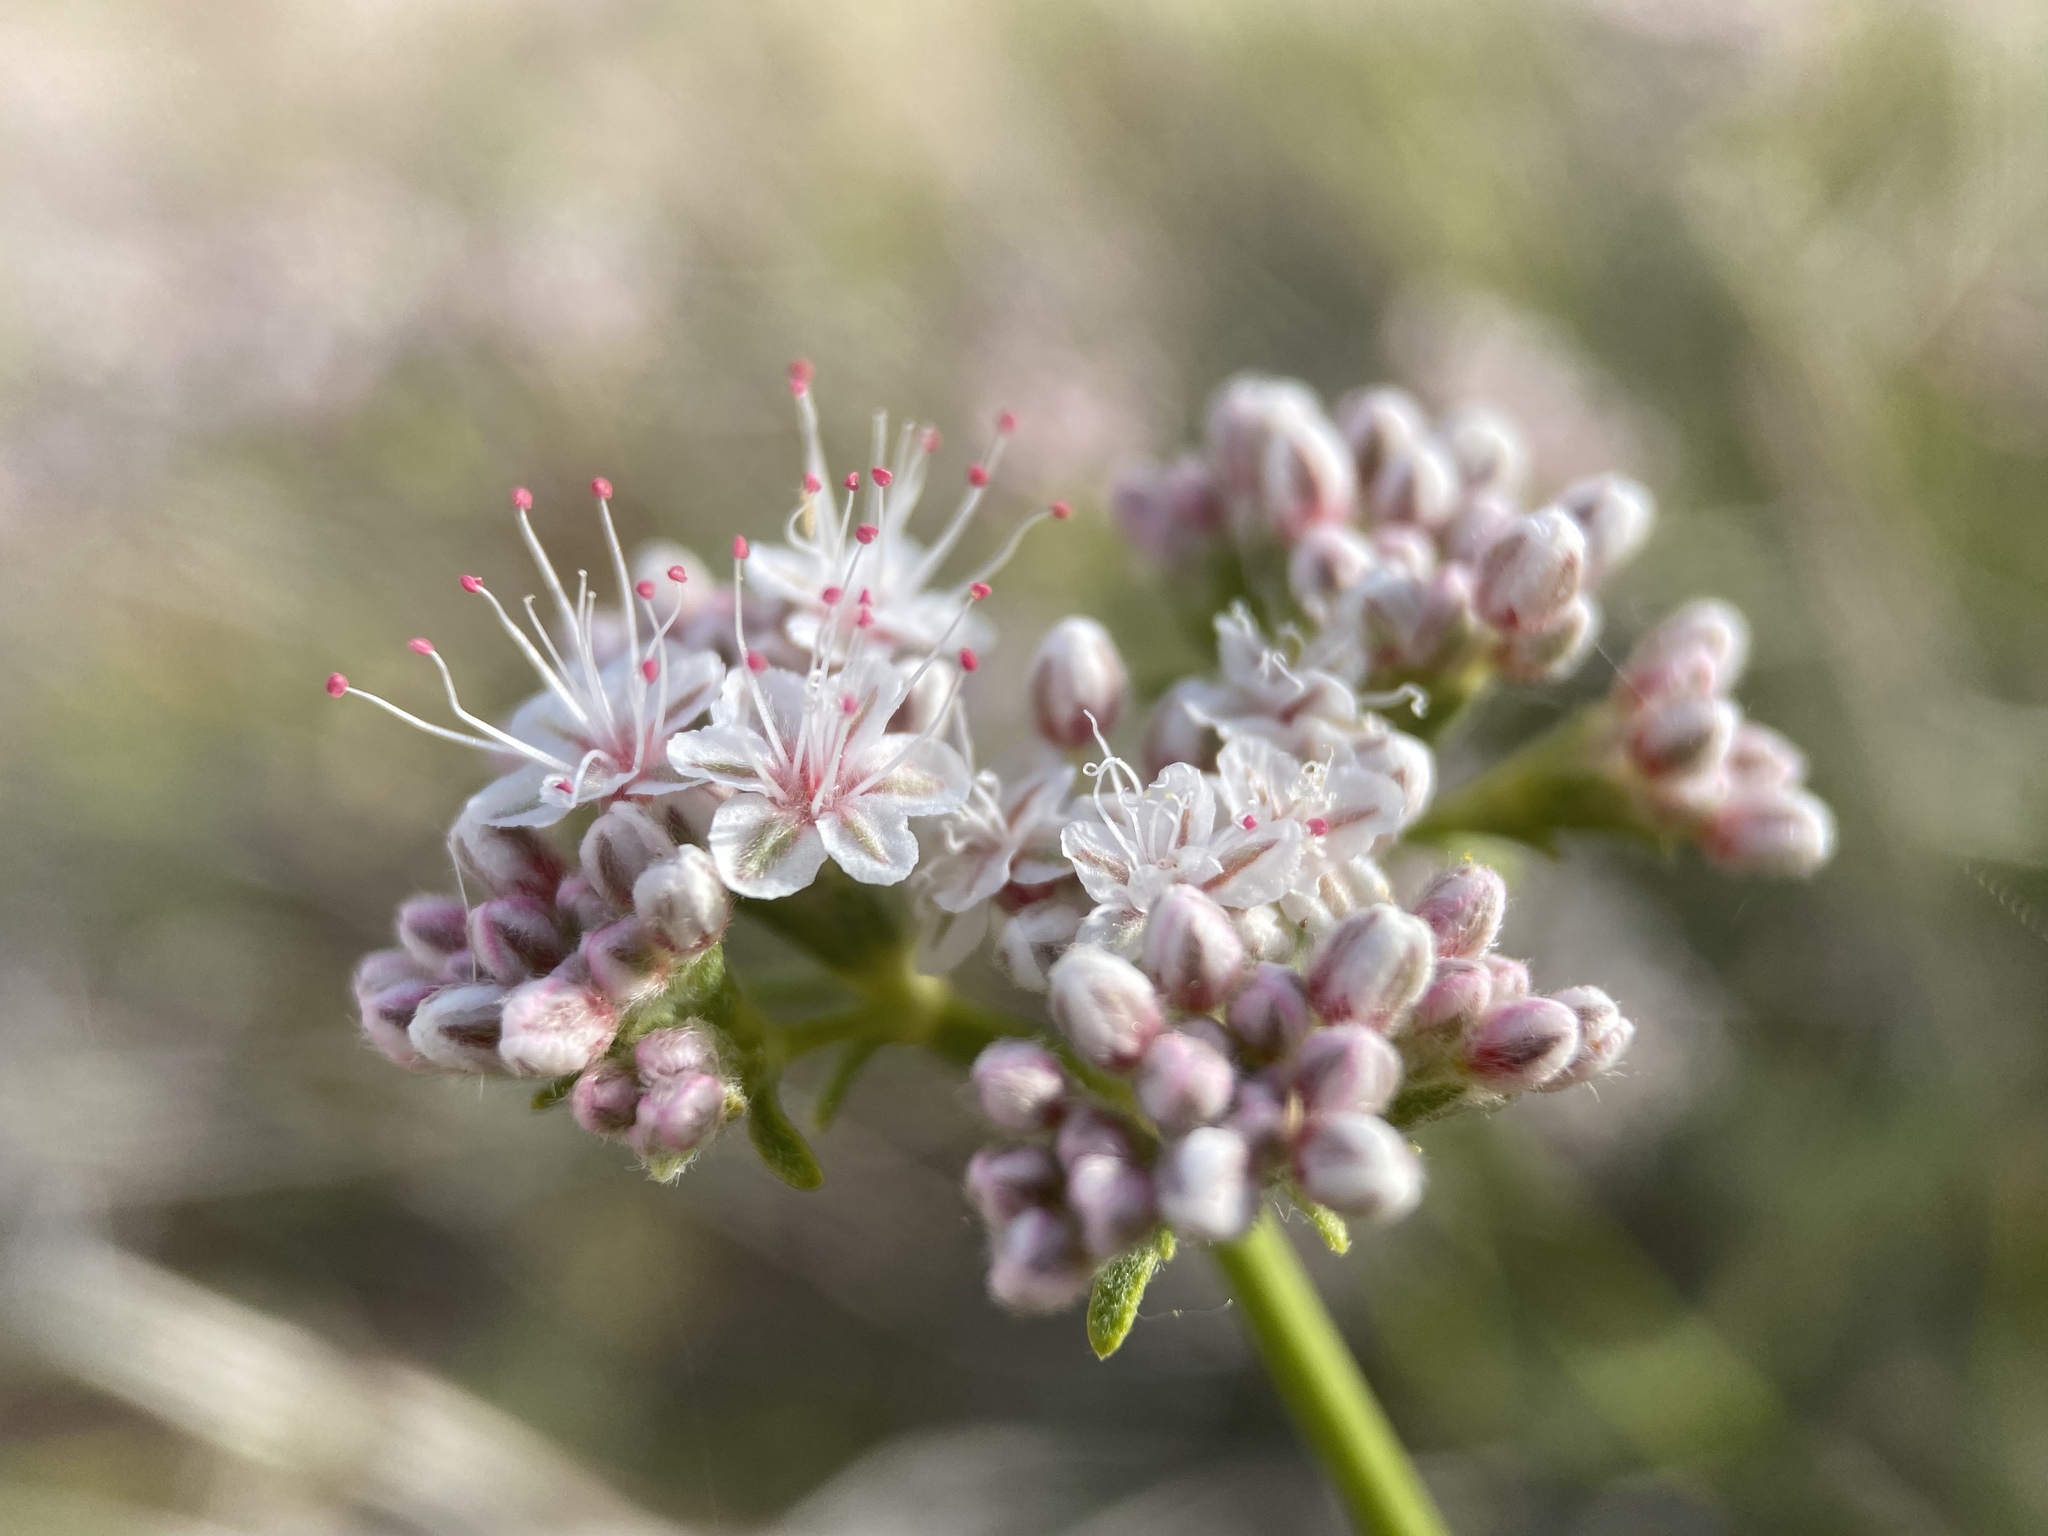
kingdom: Plantae
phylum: Tracheophyta
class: Magnoliopsida
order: Caryophyllales
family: Polygonaceae
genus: Eriogonum
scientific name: Eriogonum fasciculatum
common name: California wild buckwheat
